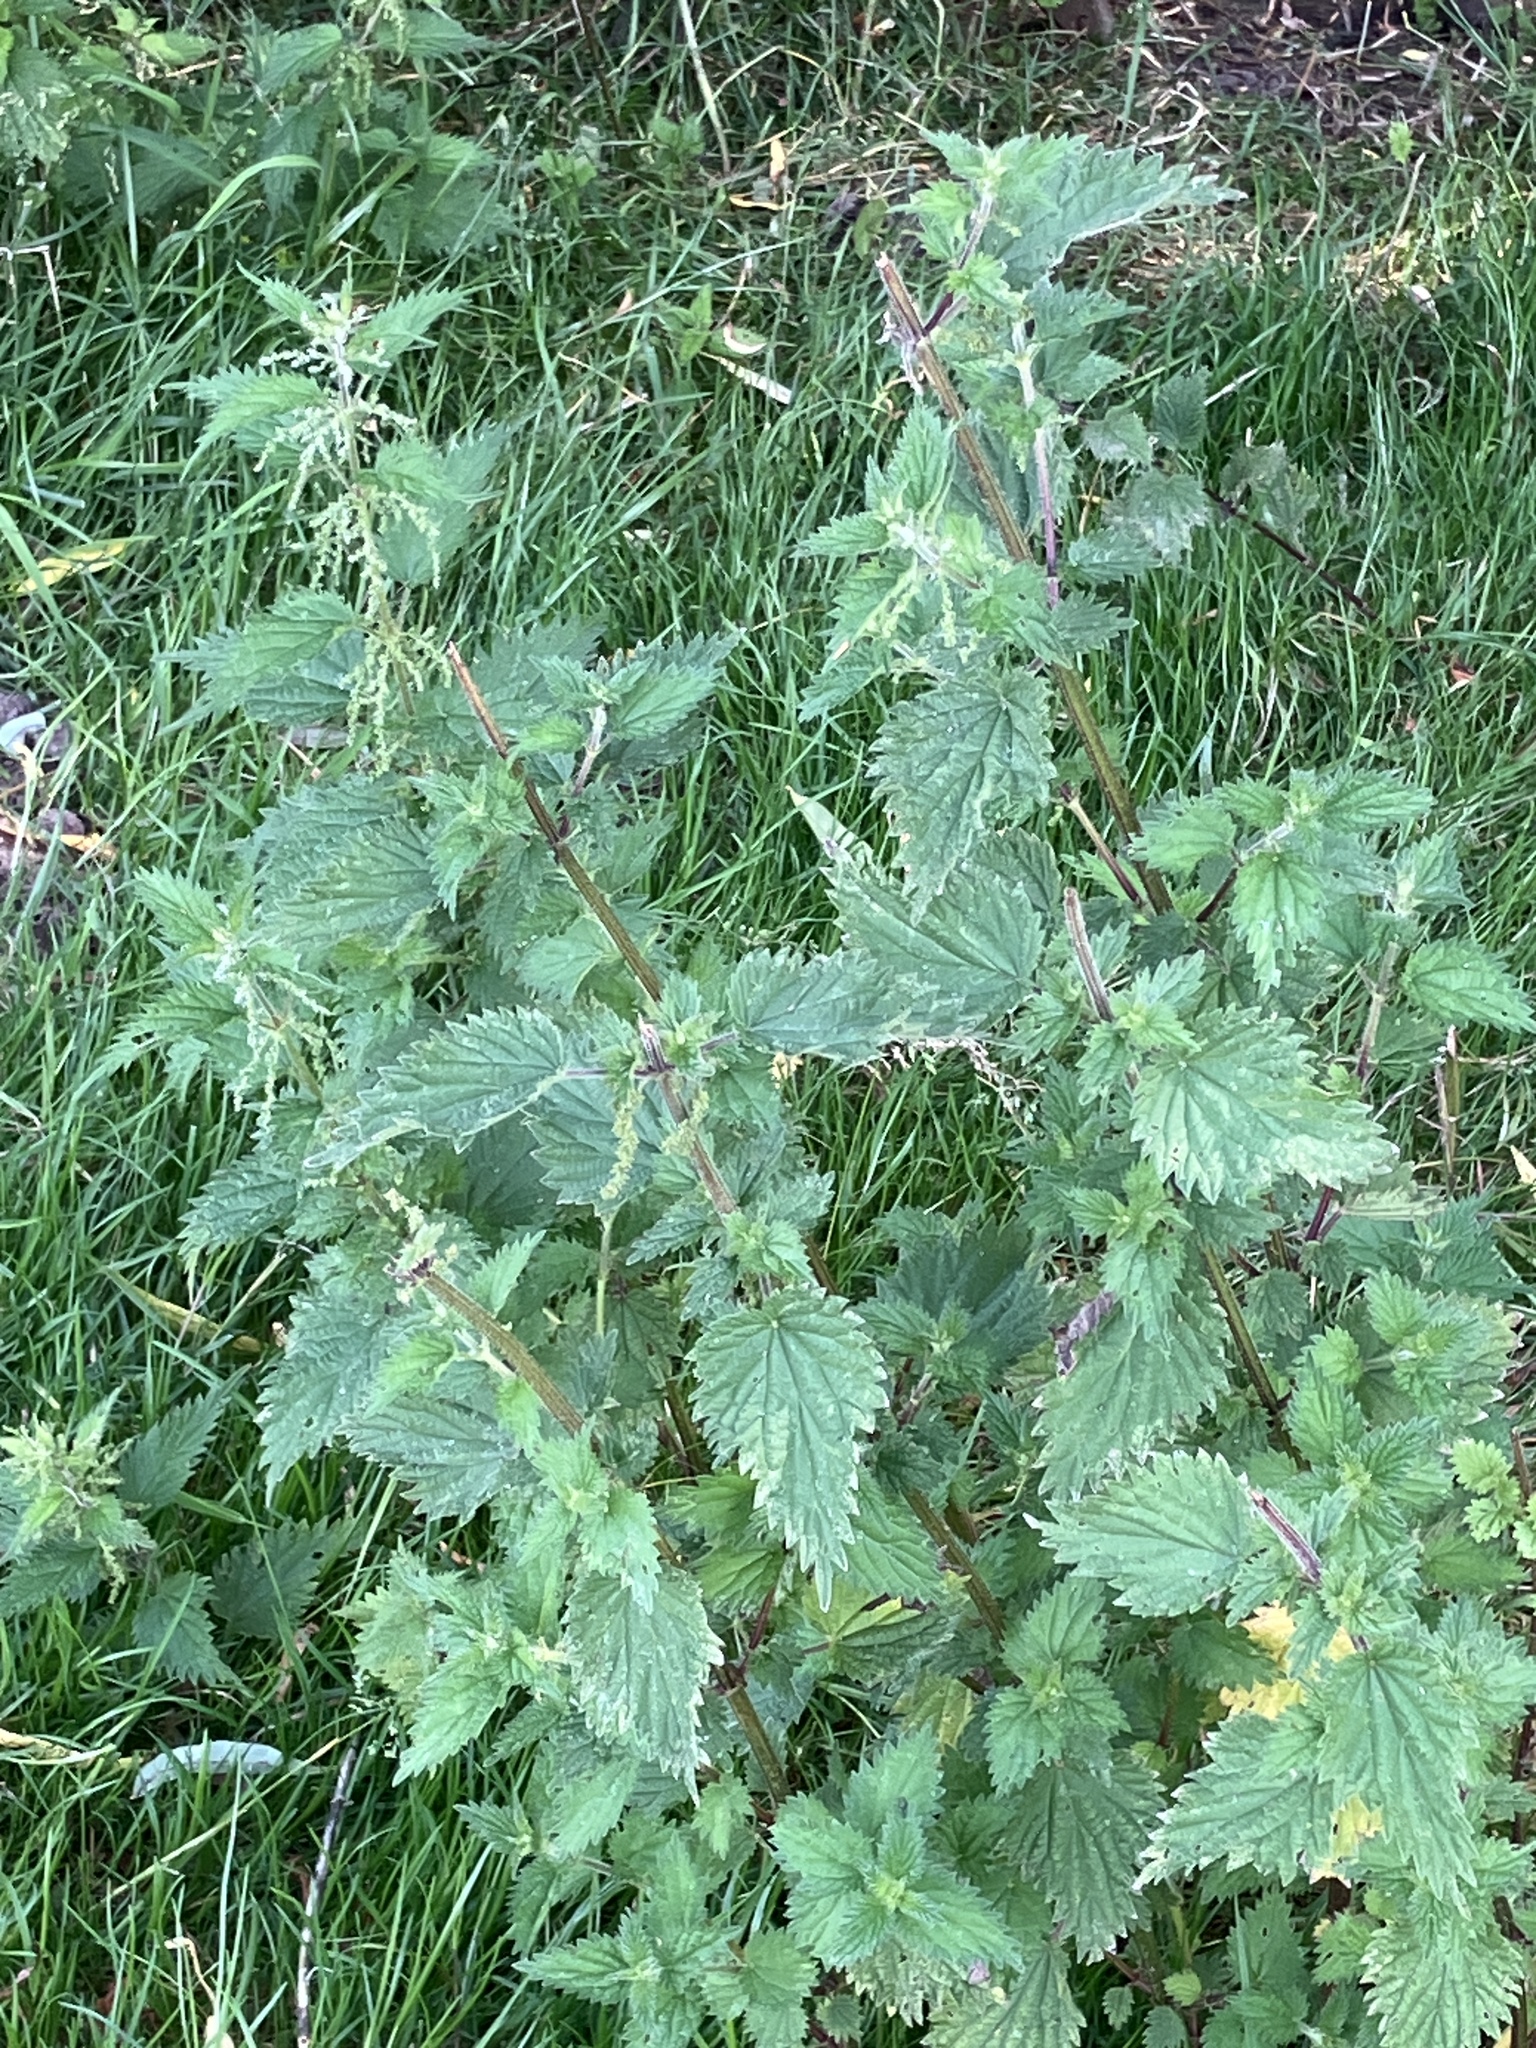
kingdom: Plantae
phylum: Tracheophyta
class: Magnoliopsida
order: Rosales
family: Urticaceae
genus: Urtica
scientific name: Urtica dioica
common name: Common nettle
